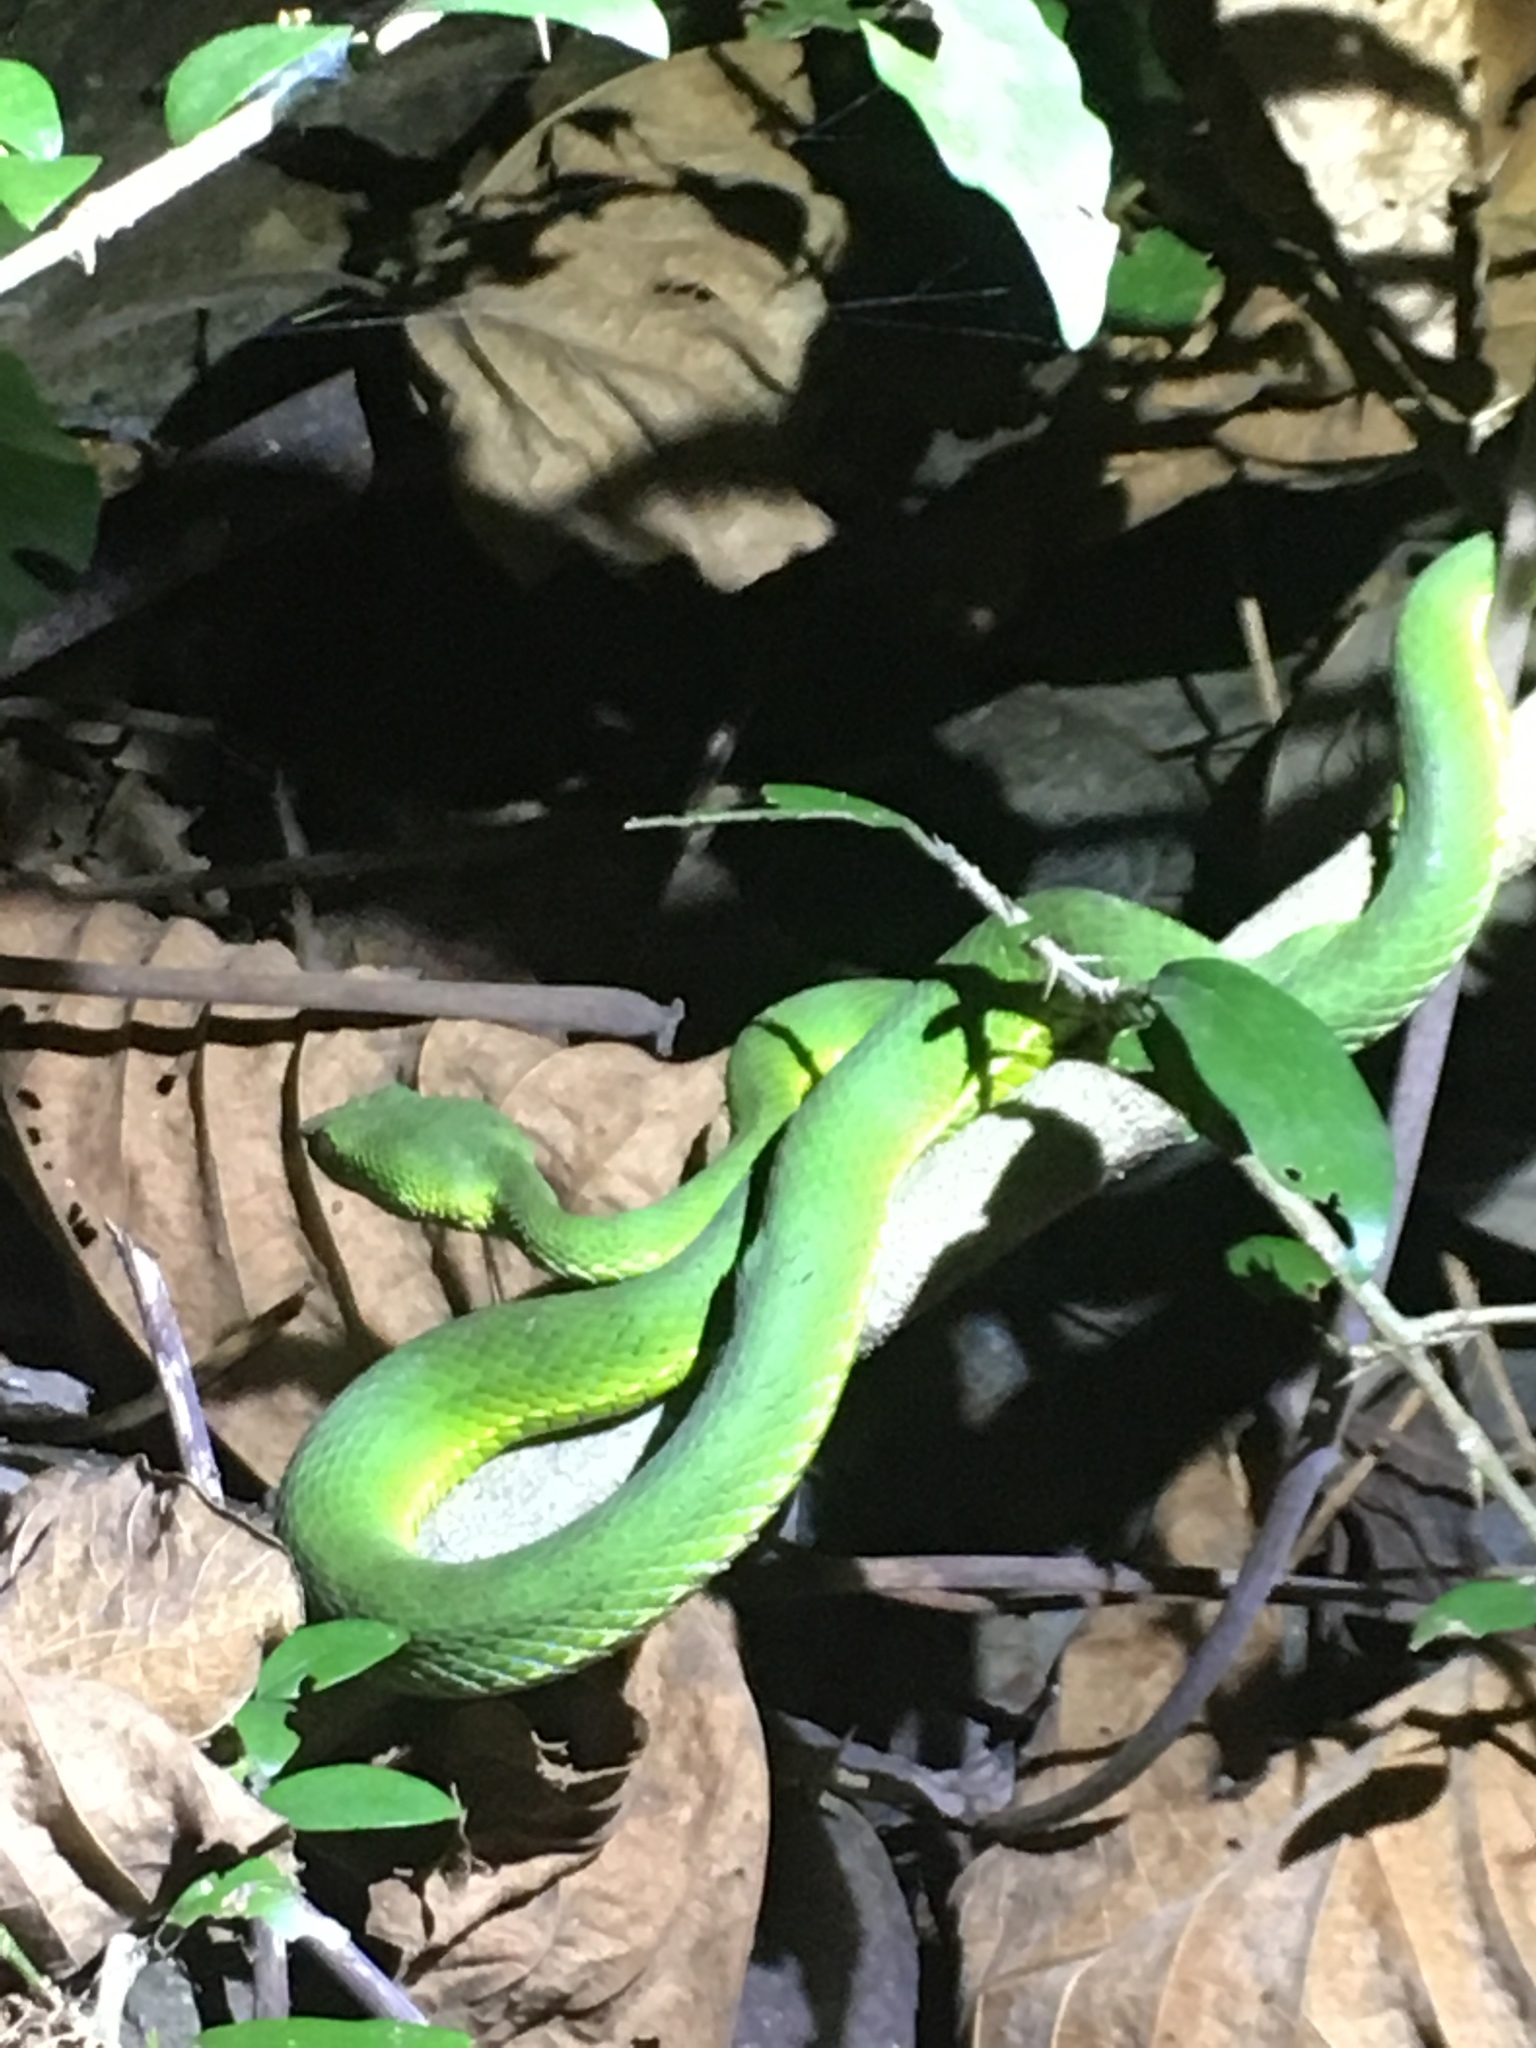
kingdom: Animalia
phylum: Chordata
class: Squamata
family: Viperidae
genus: Trimeresurus
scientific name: Trimeresurus stejnegeri
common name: Chen’s bamboo pit viper
